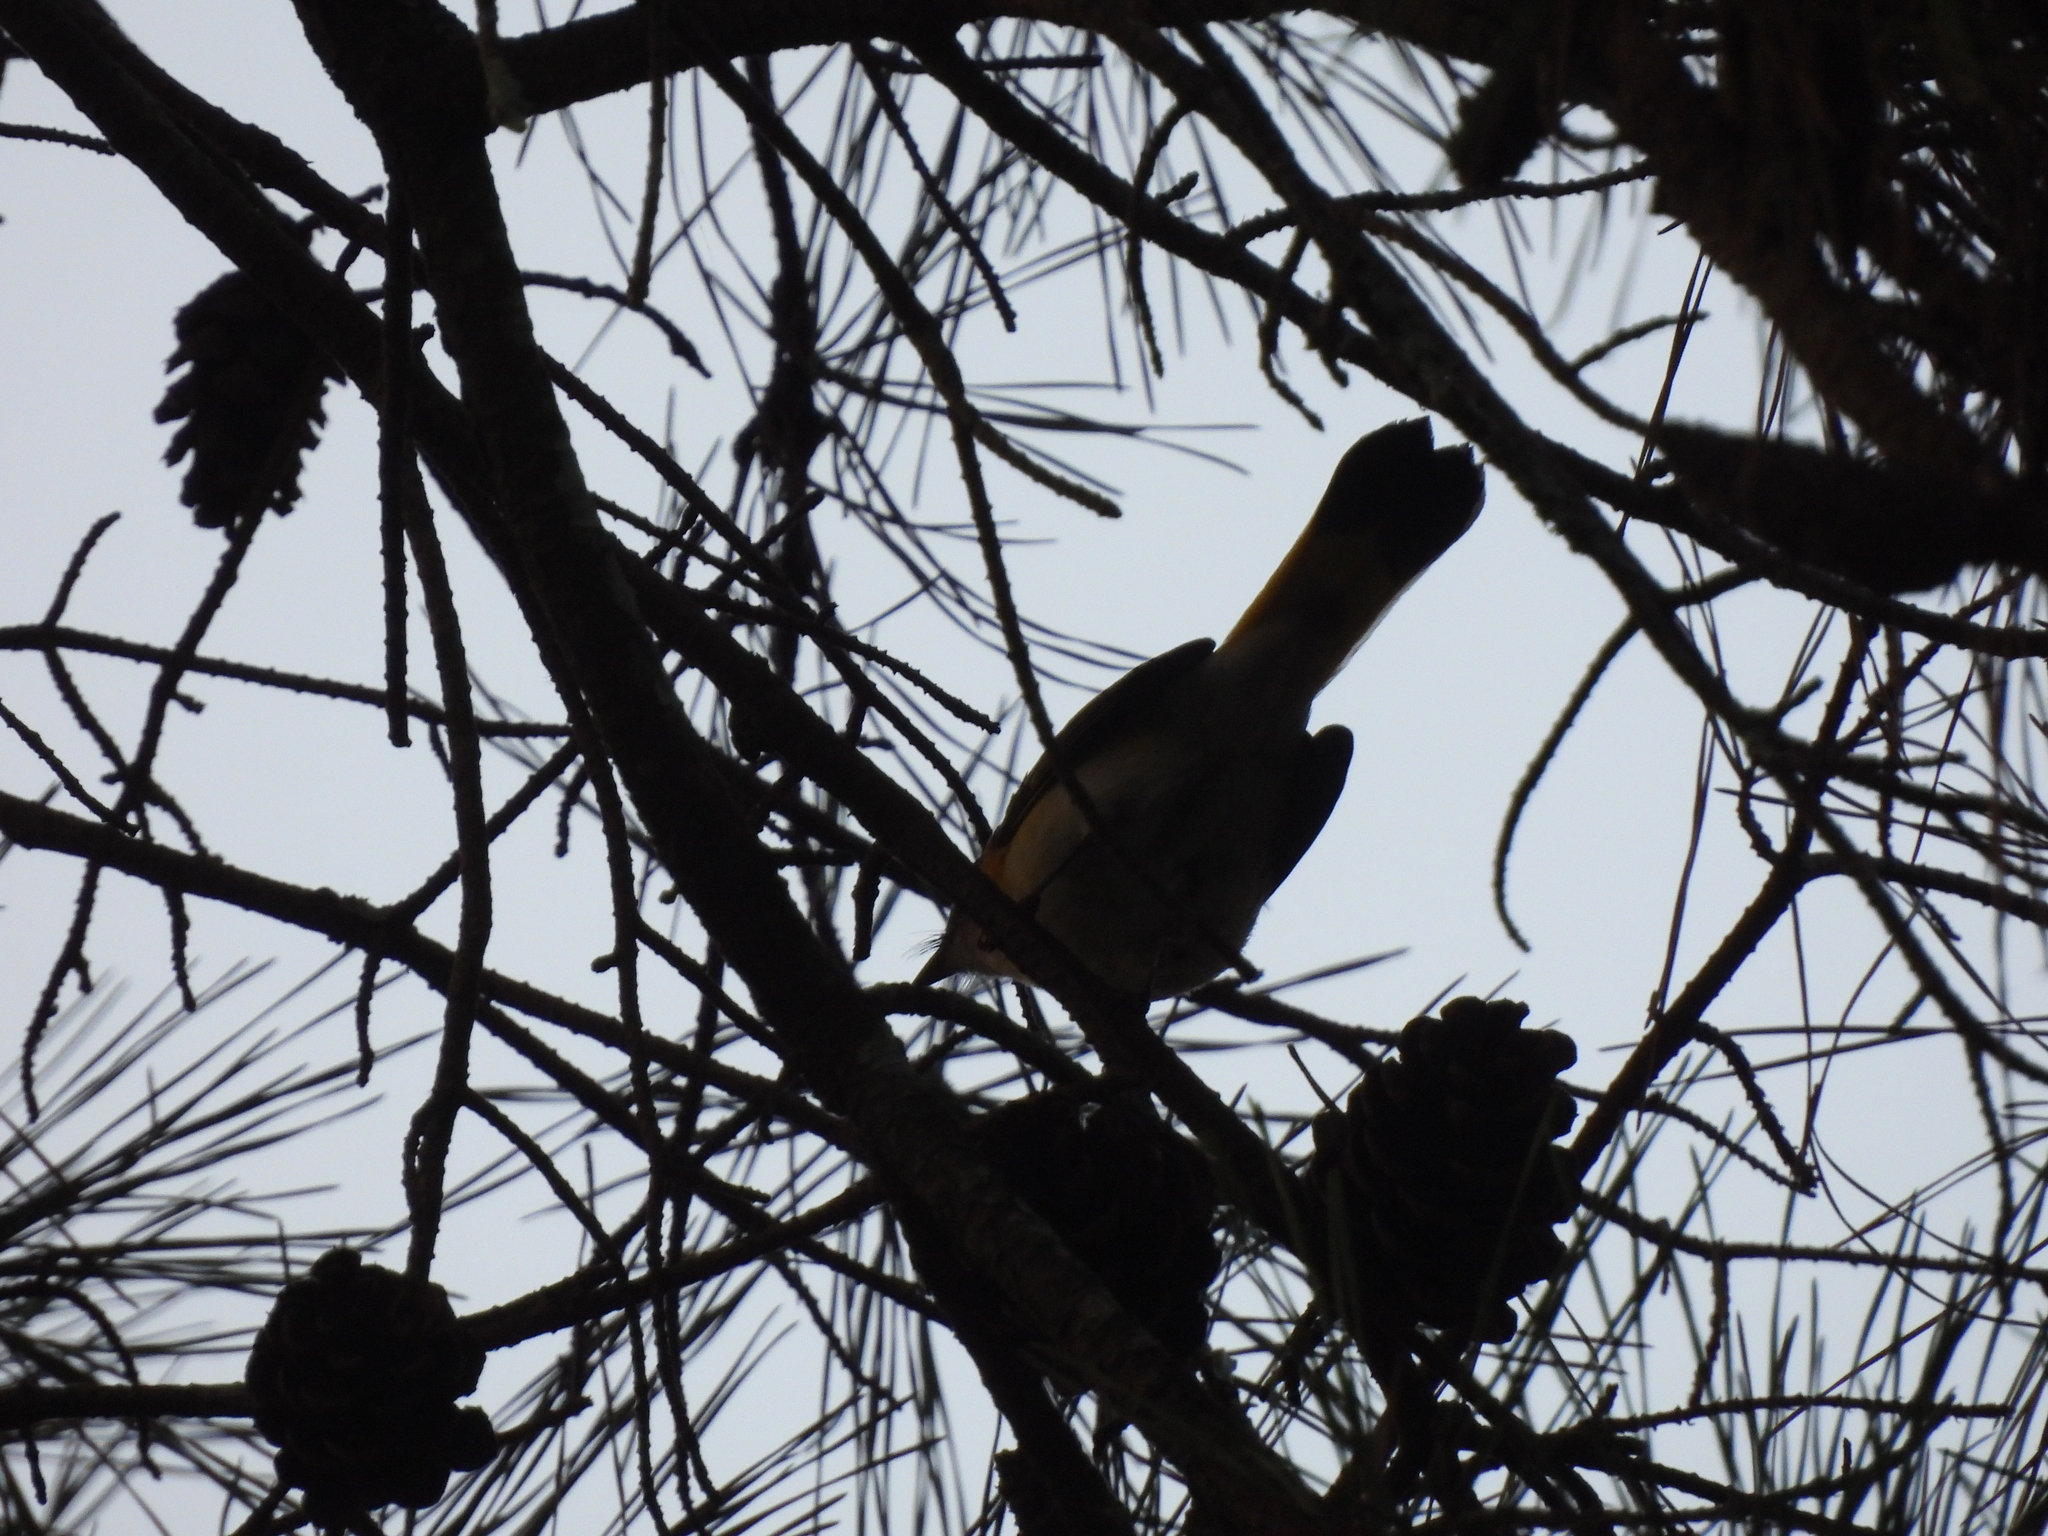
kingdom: Animalia
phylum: Chordata
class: Aves
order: Passeriformes
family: Parulidae
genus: Setophaga
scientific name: Setophaga ruticilla
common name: American redstart
